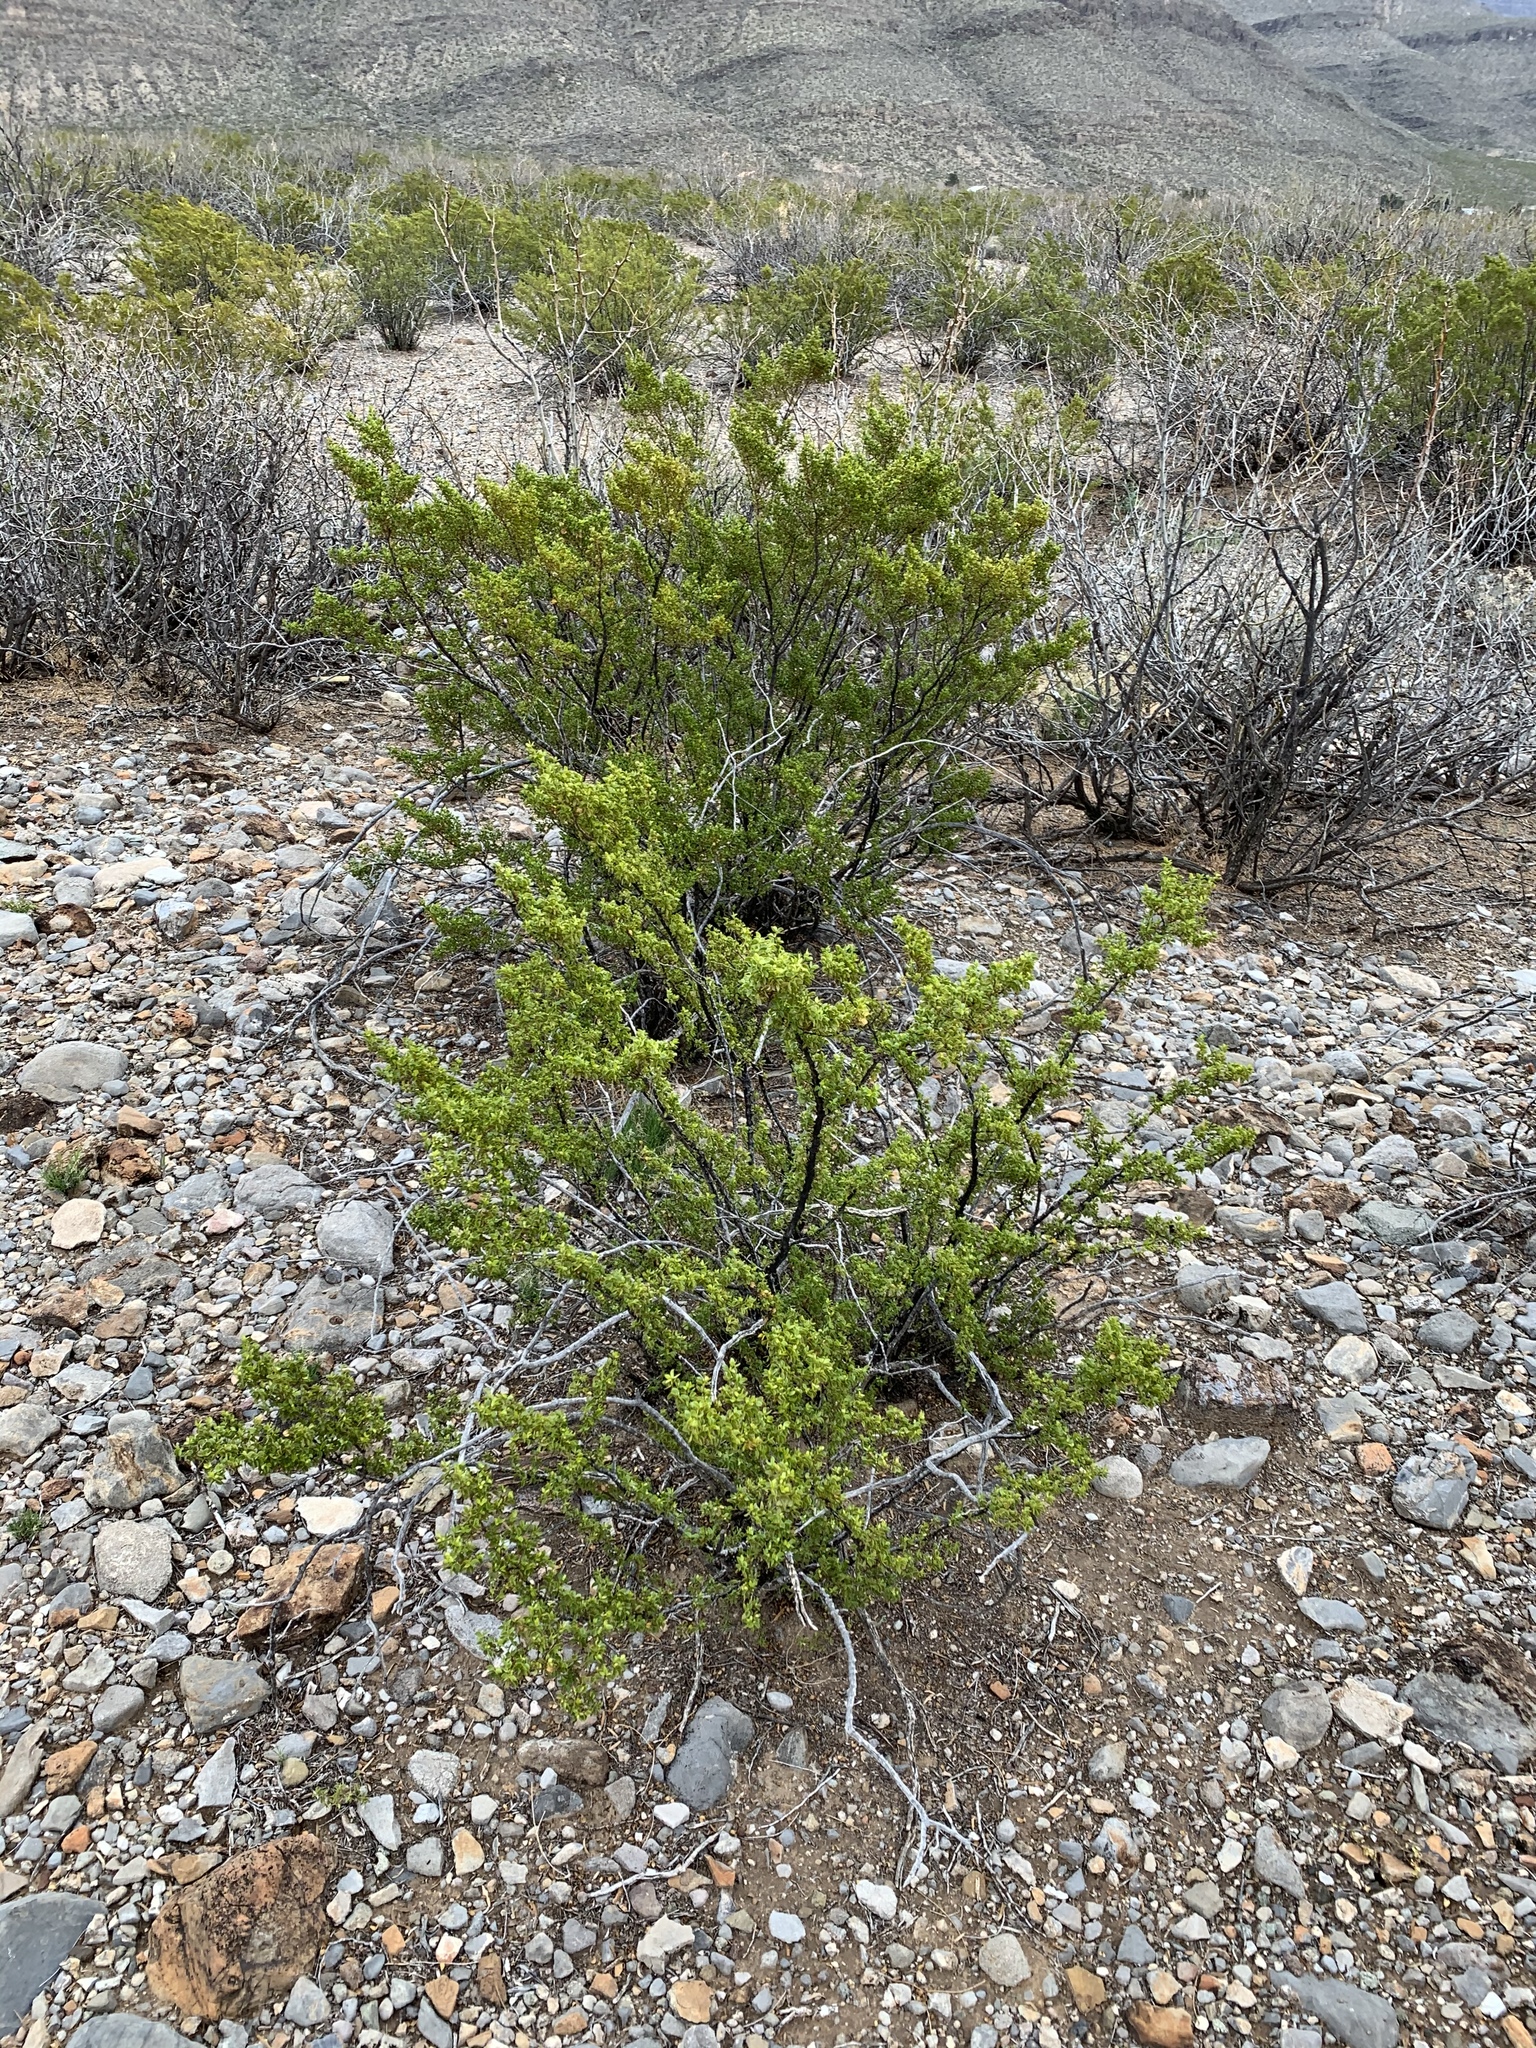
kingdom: Plantae
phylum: Tracheophyta
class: Magnoliopsida
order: Zygophyllales
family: Zygophyllaceae
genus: Larrea
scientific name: Larrea tridentata
